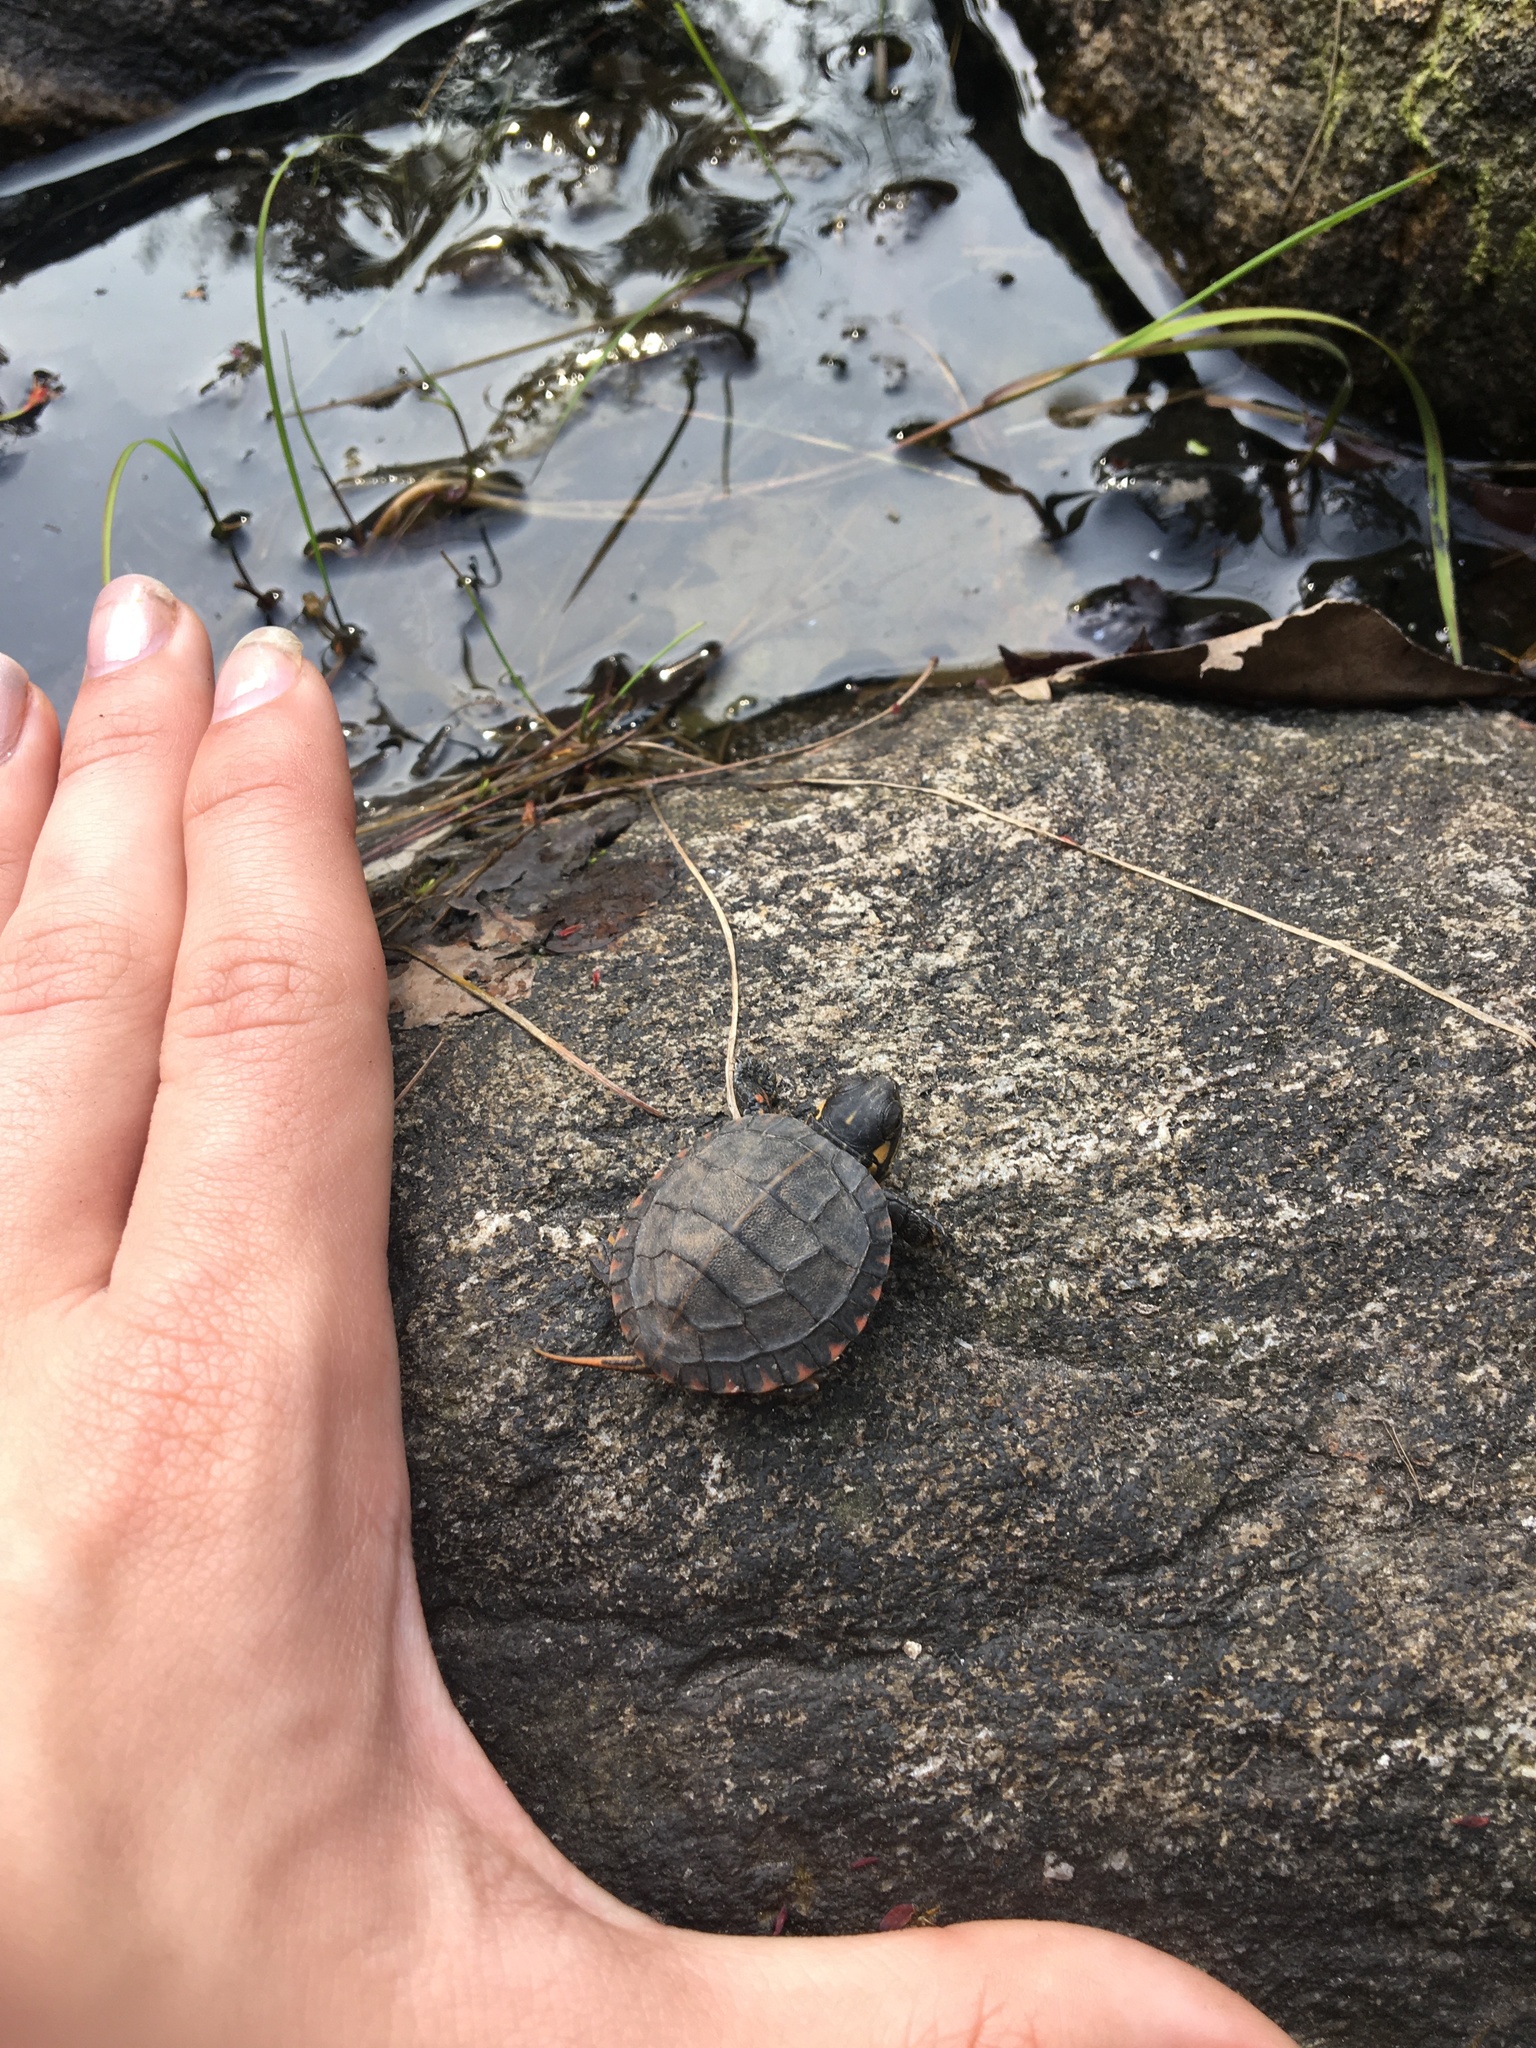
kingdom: Animalia
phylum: Chordata
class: Testudines
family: Emydidae
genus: Chrysemys
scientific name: Chrysemys picta
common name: Painted turtle
